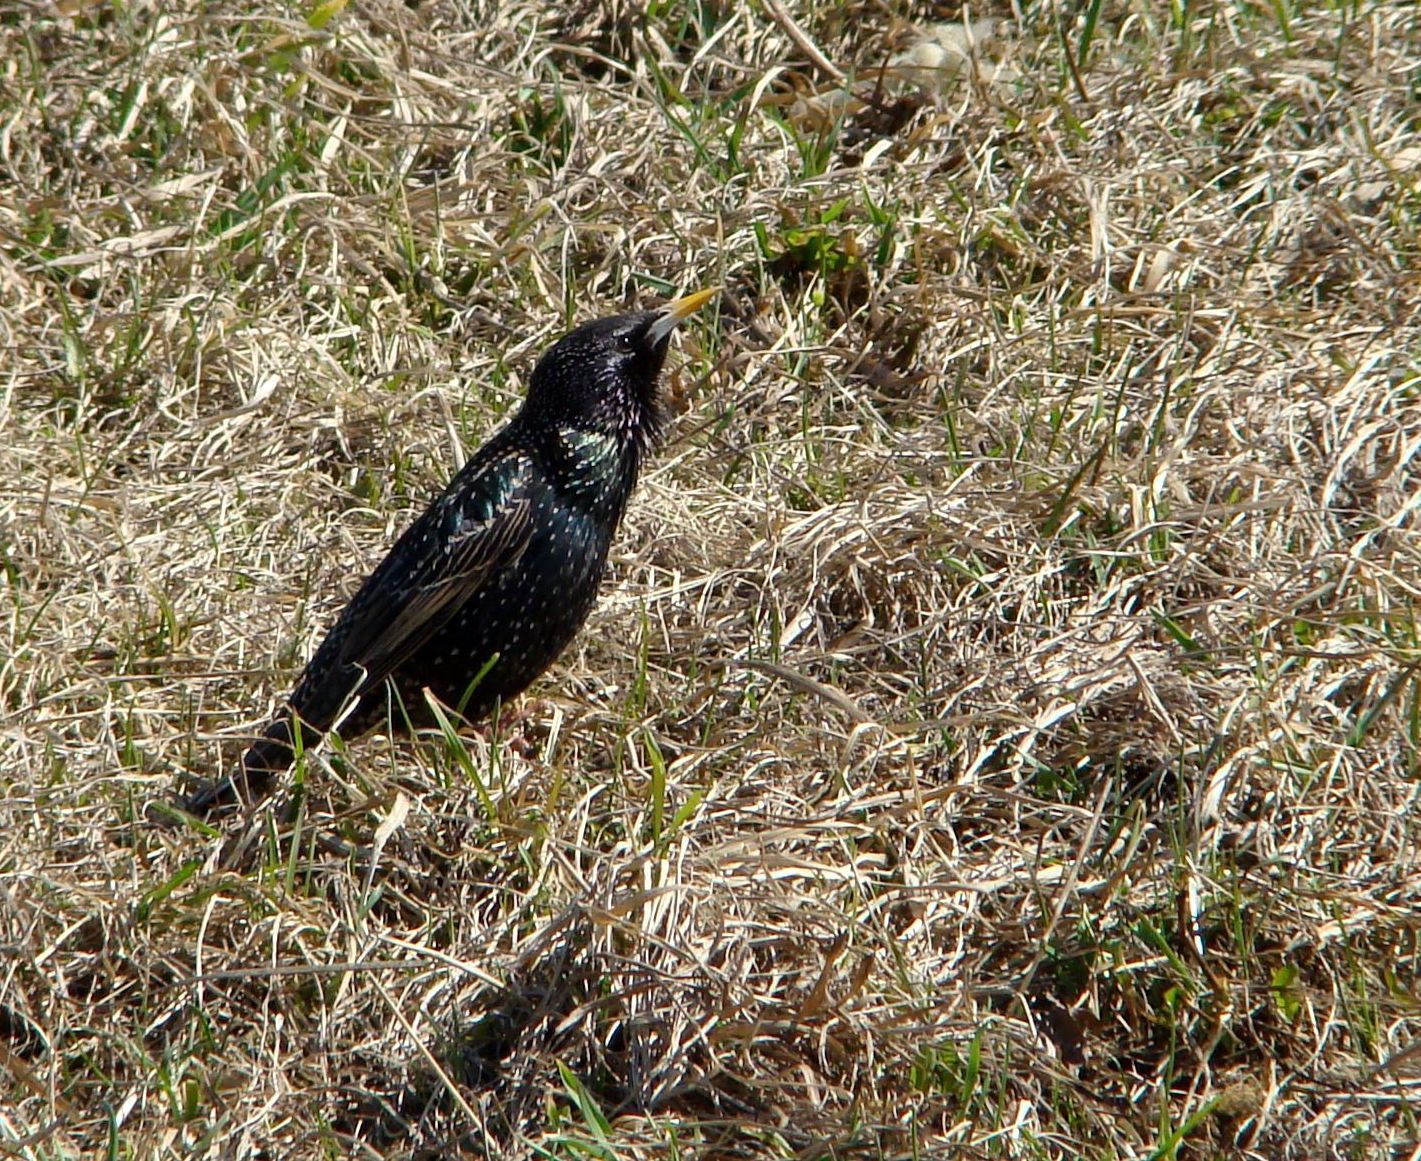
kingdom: Animalia
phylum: Chordata
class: Aves
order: Passeriformes
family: Sturnidae
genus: Sturnus
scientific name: Sturnus vulgaris
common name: Common starling
